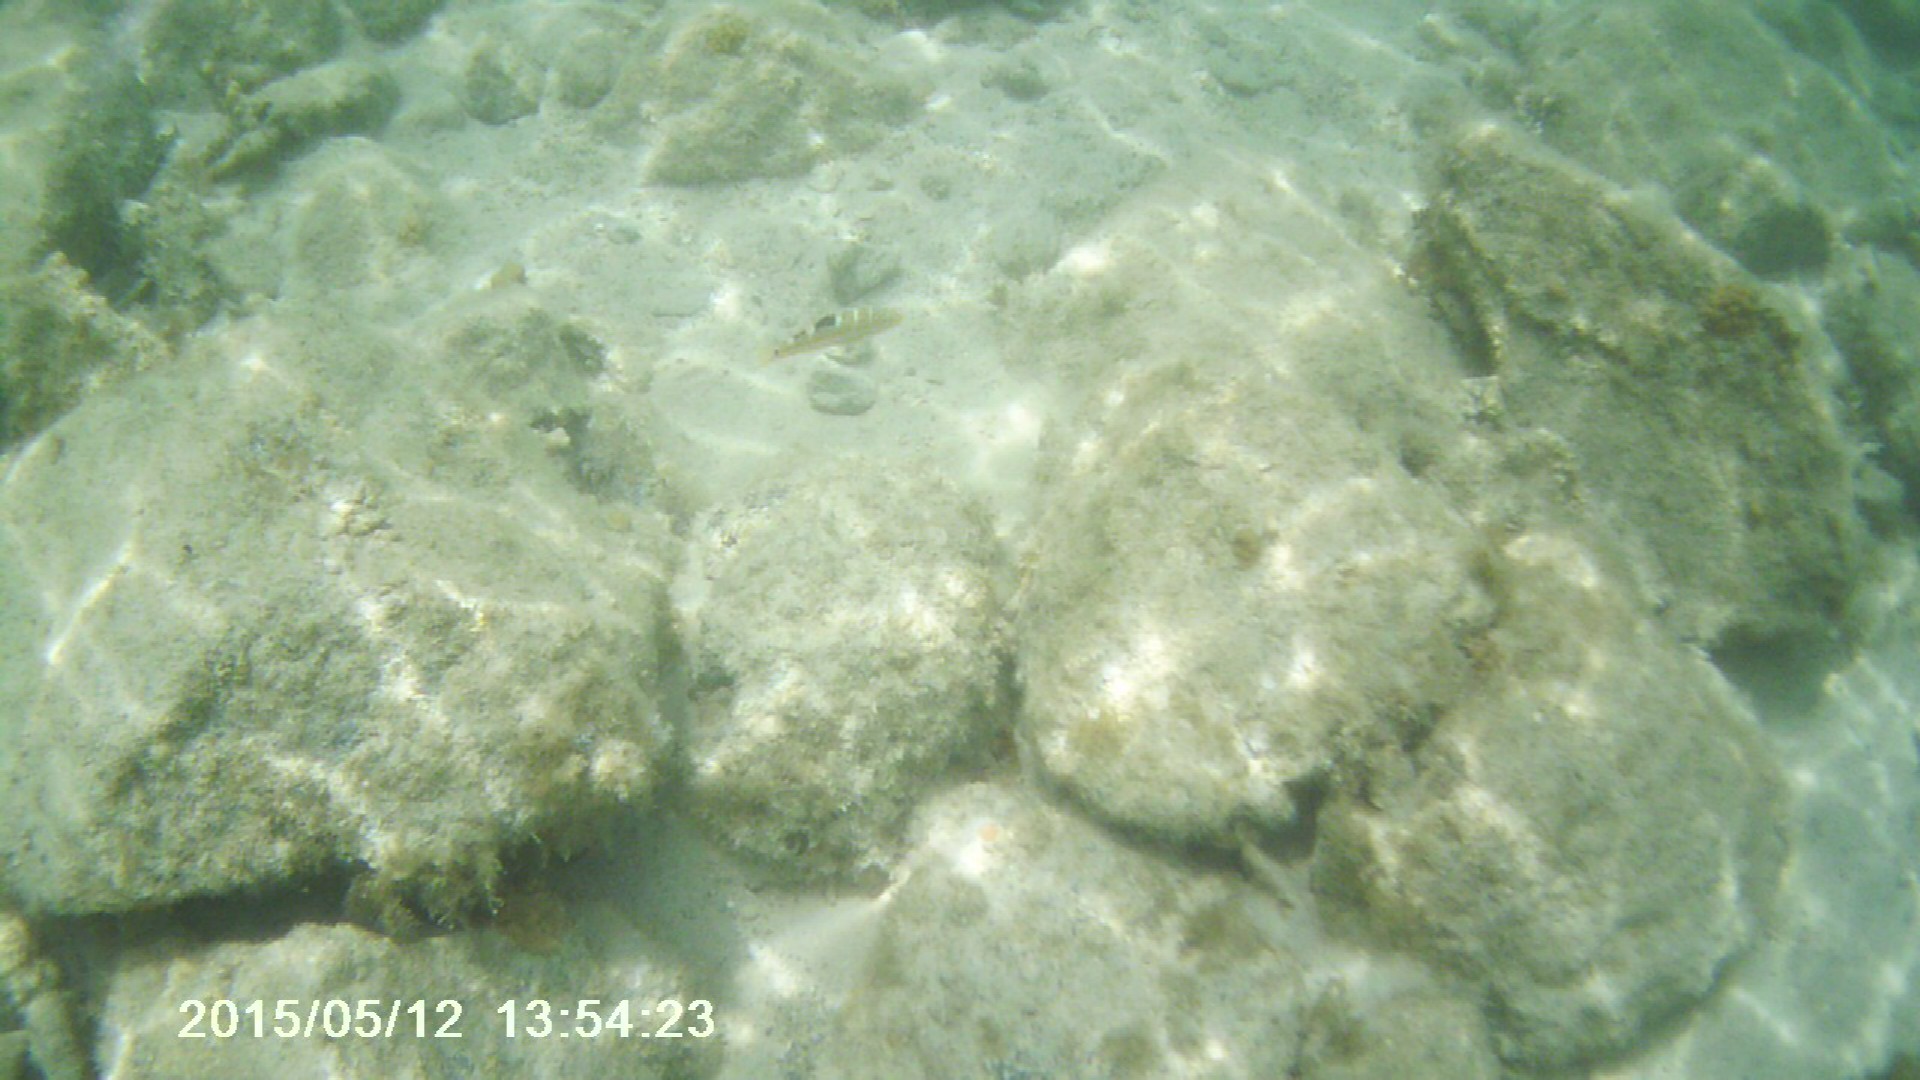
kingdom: Animalia
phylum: Chordata
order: Perciformes
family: Labridae
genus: Halichoeres
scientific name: Halichoeres radiatus
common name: Puddingwife
